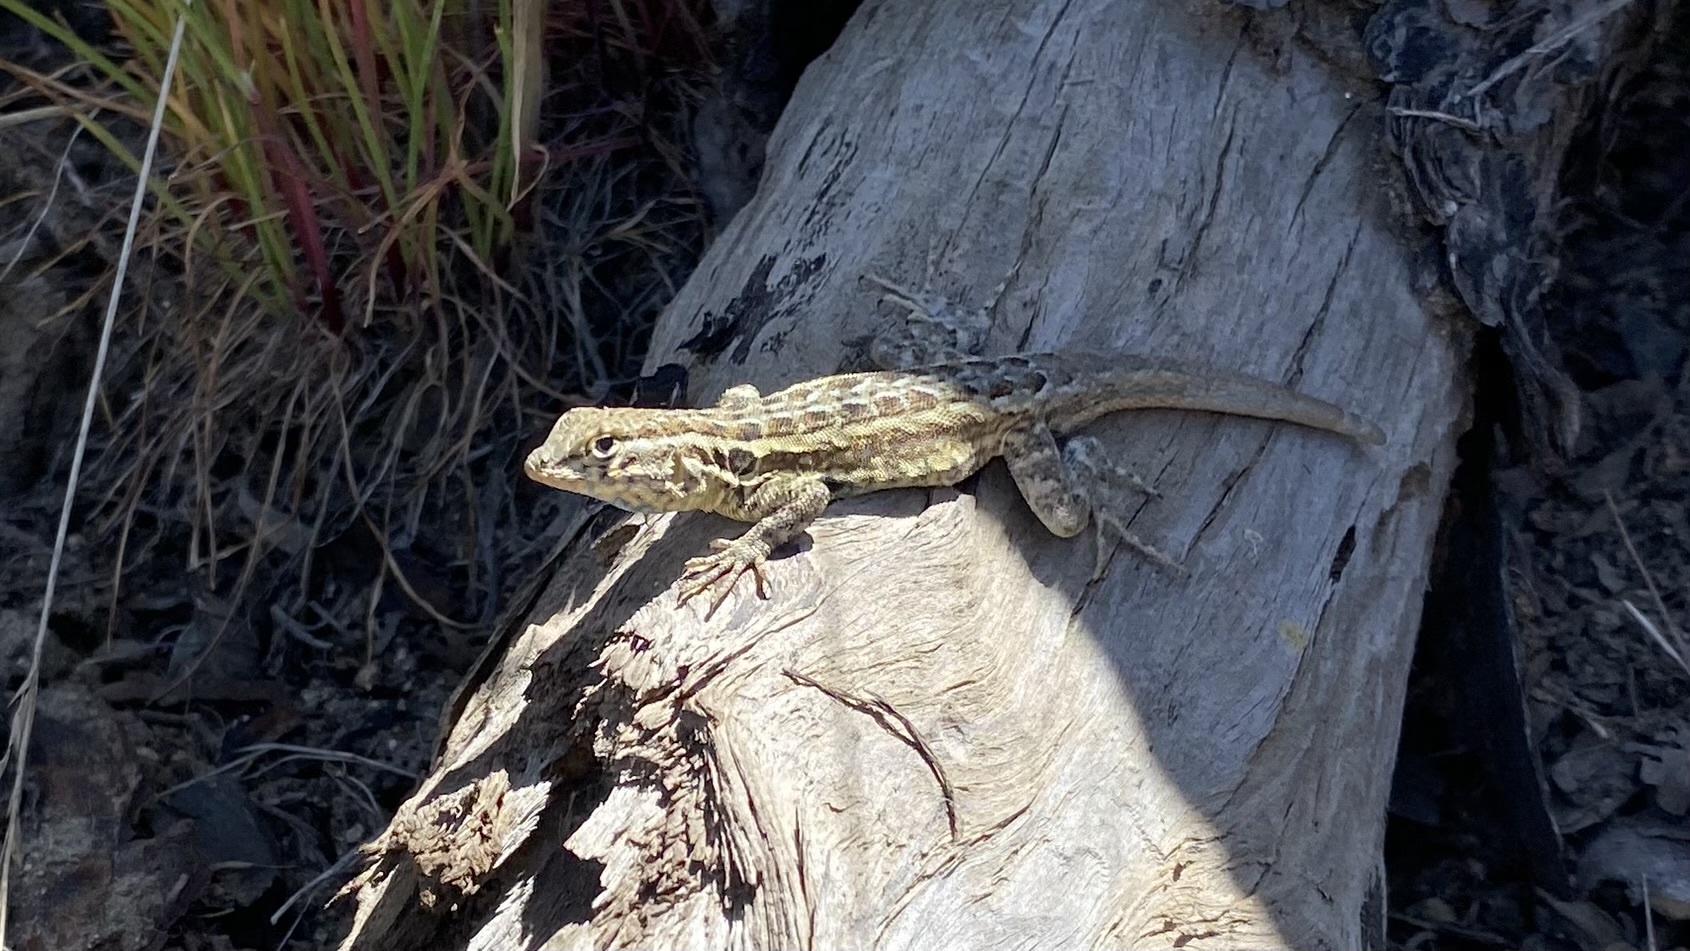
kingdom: Animalia
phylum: Chordata
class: Squamata
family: Phrynosomatidae
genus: Uta
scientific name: Uta stansburiana
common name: Side-blotched lizard
